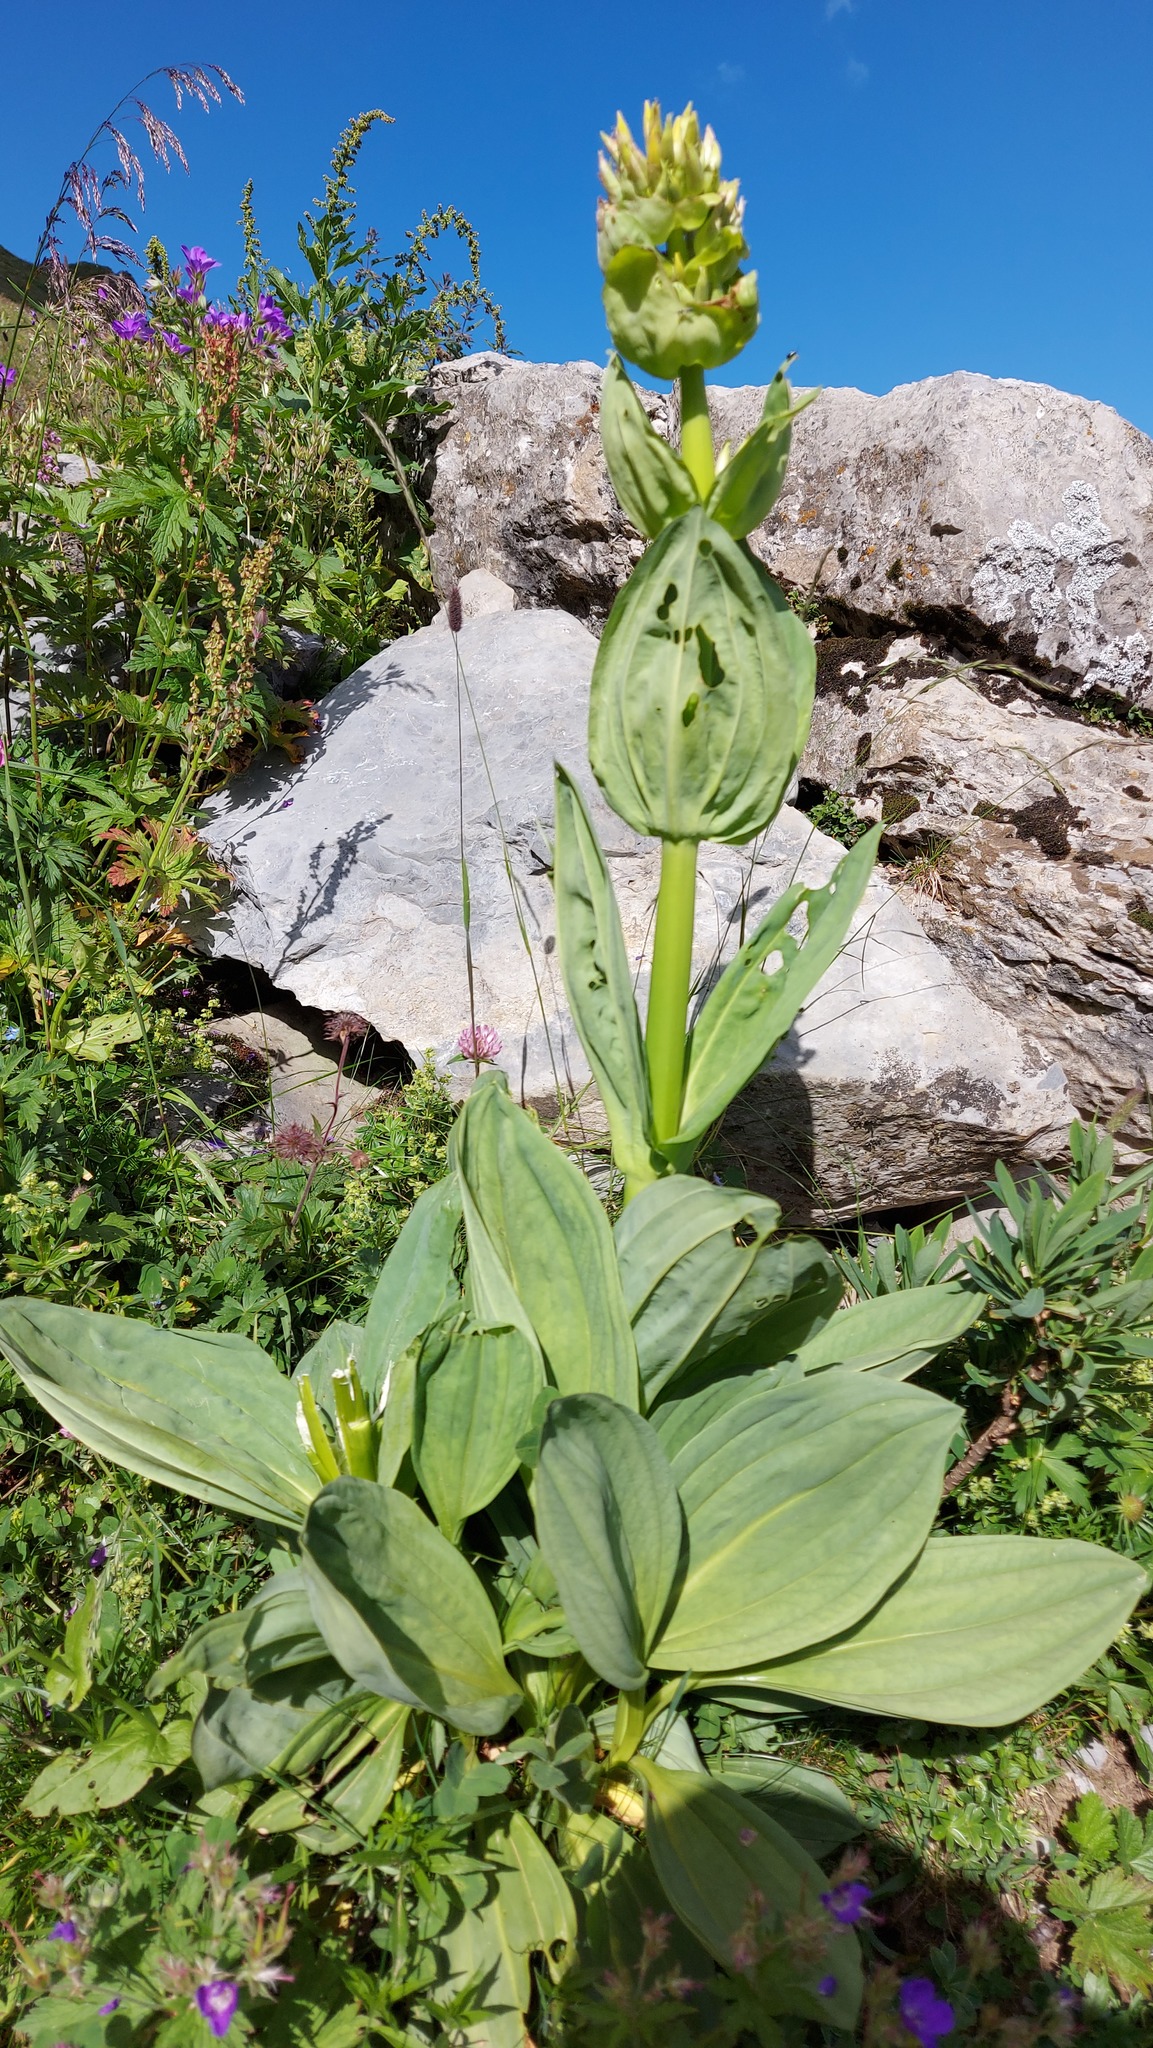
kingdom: Plantae
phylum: Tracheophyta
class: Magnoliopsida
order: Gentianales
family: Gentianaceae
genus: Gentiana
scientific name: Gentiana lutea
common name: Great yellow gentian
